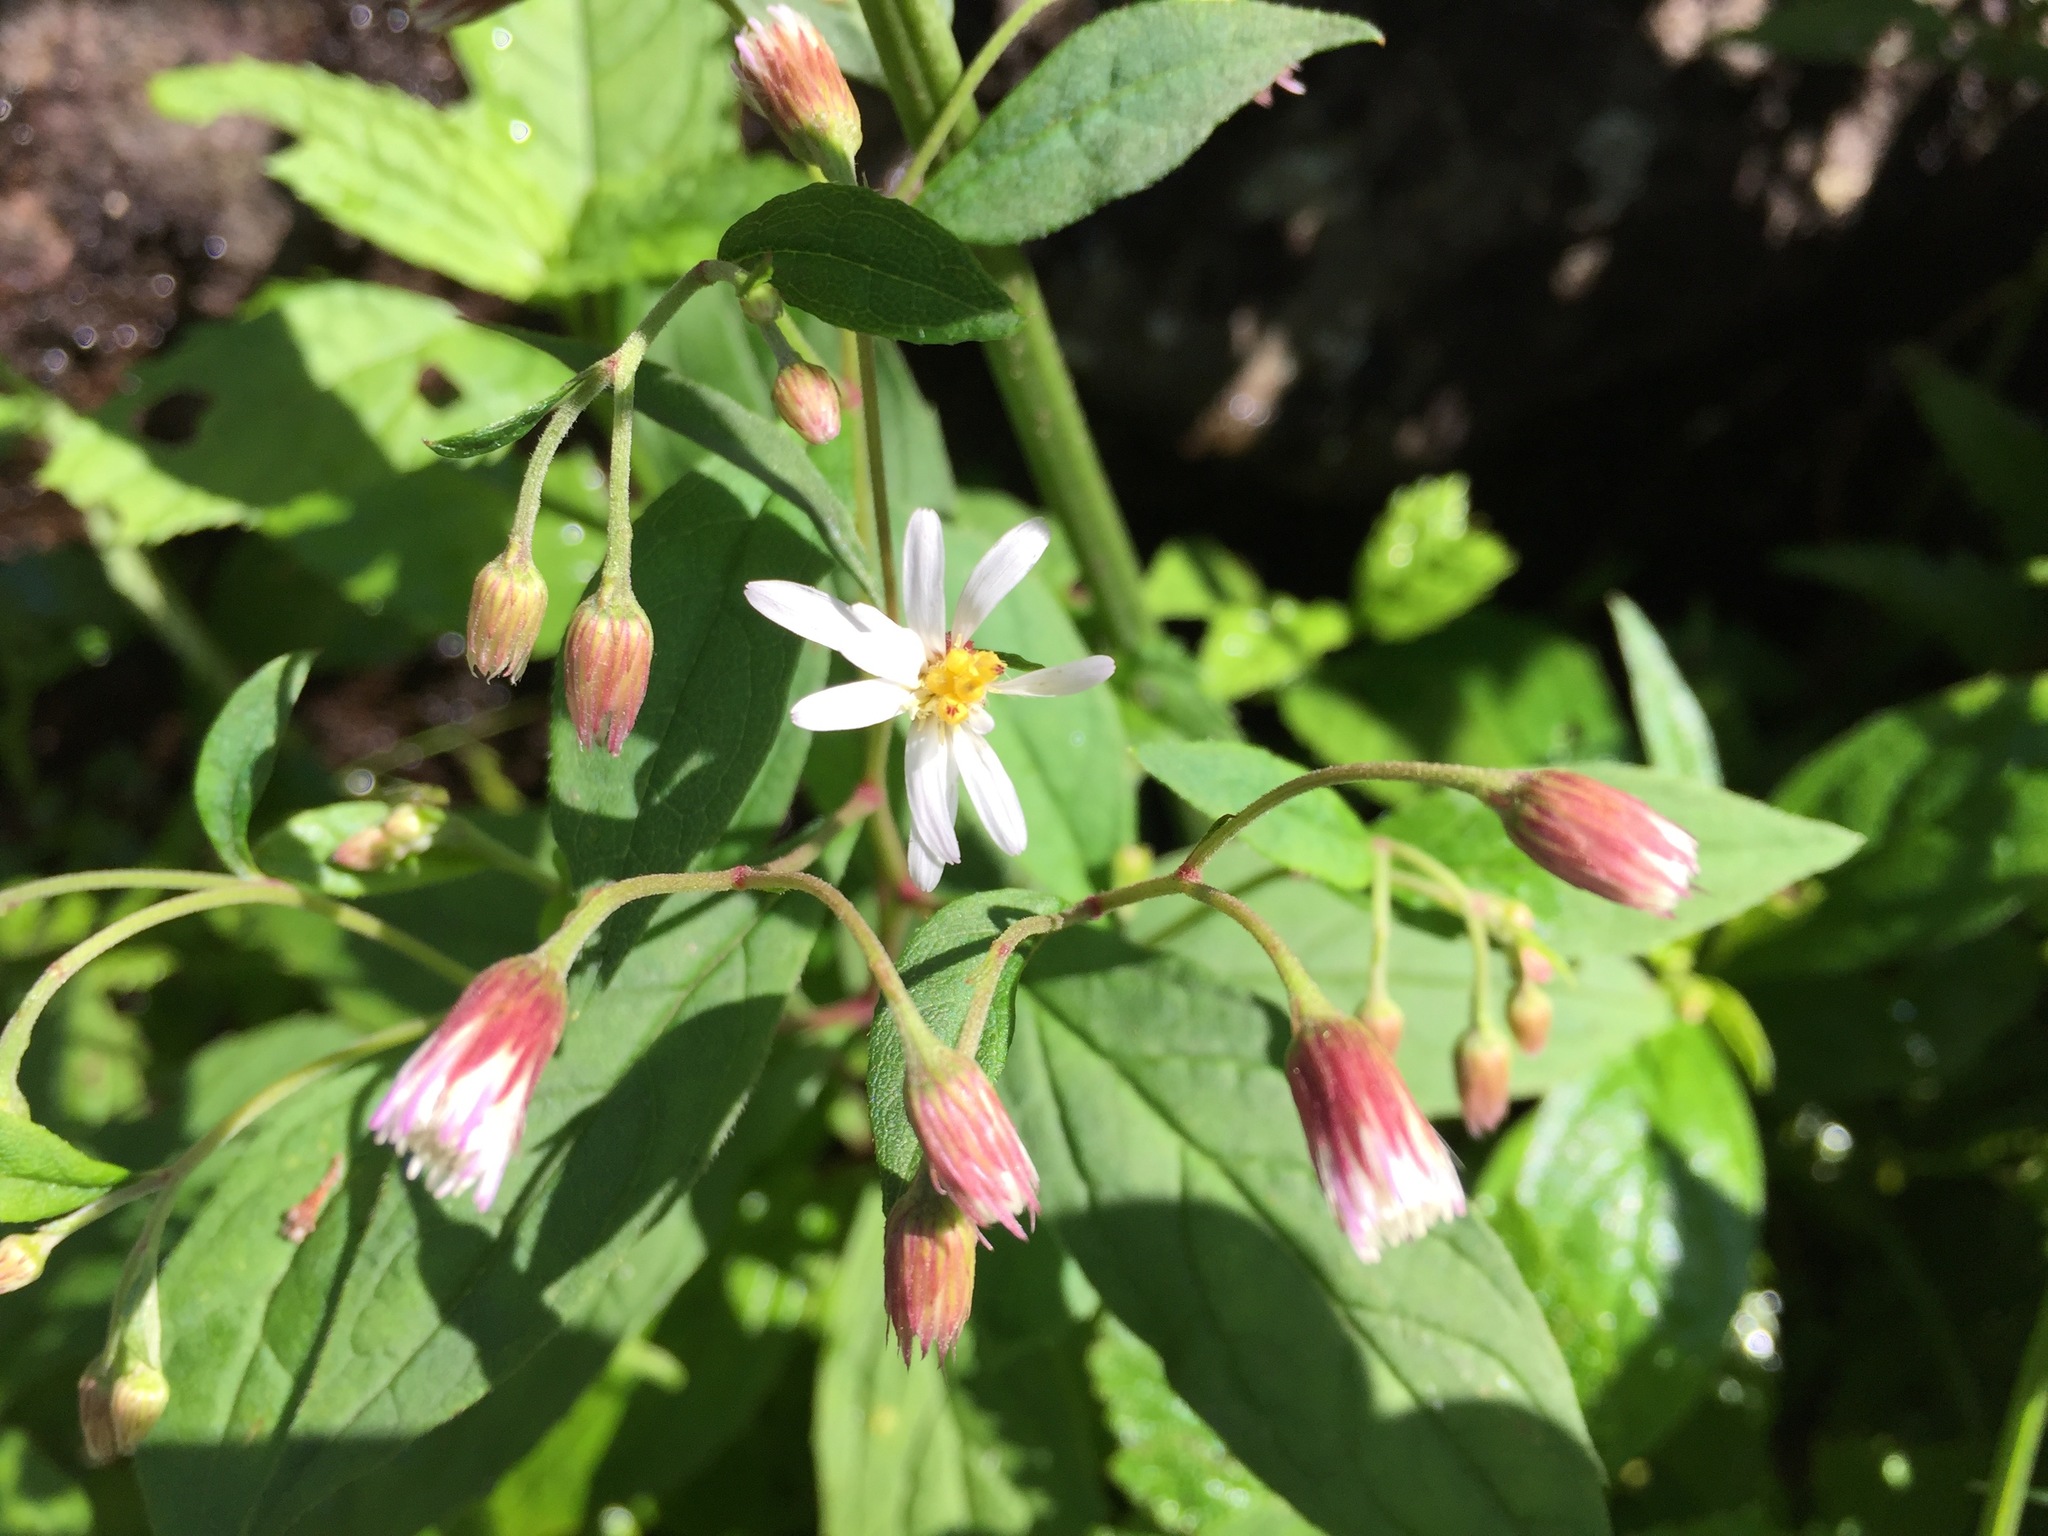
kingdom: Plantae
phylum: Tracheophyta
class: Magnoliopsida
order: Asterales
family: Asteraceae
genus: Oclemena
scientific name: Oclemena acuminata
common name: Mountain aster
